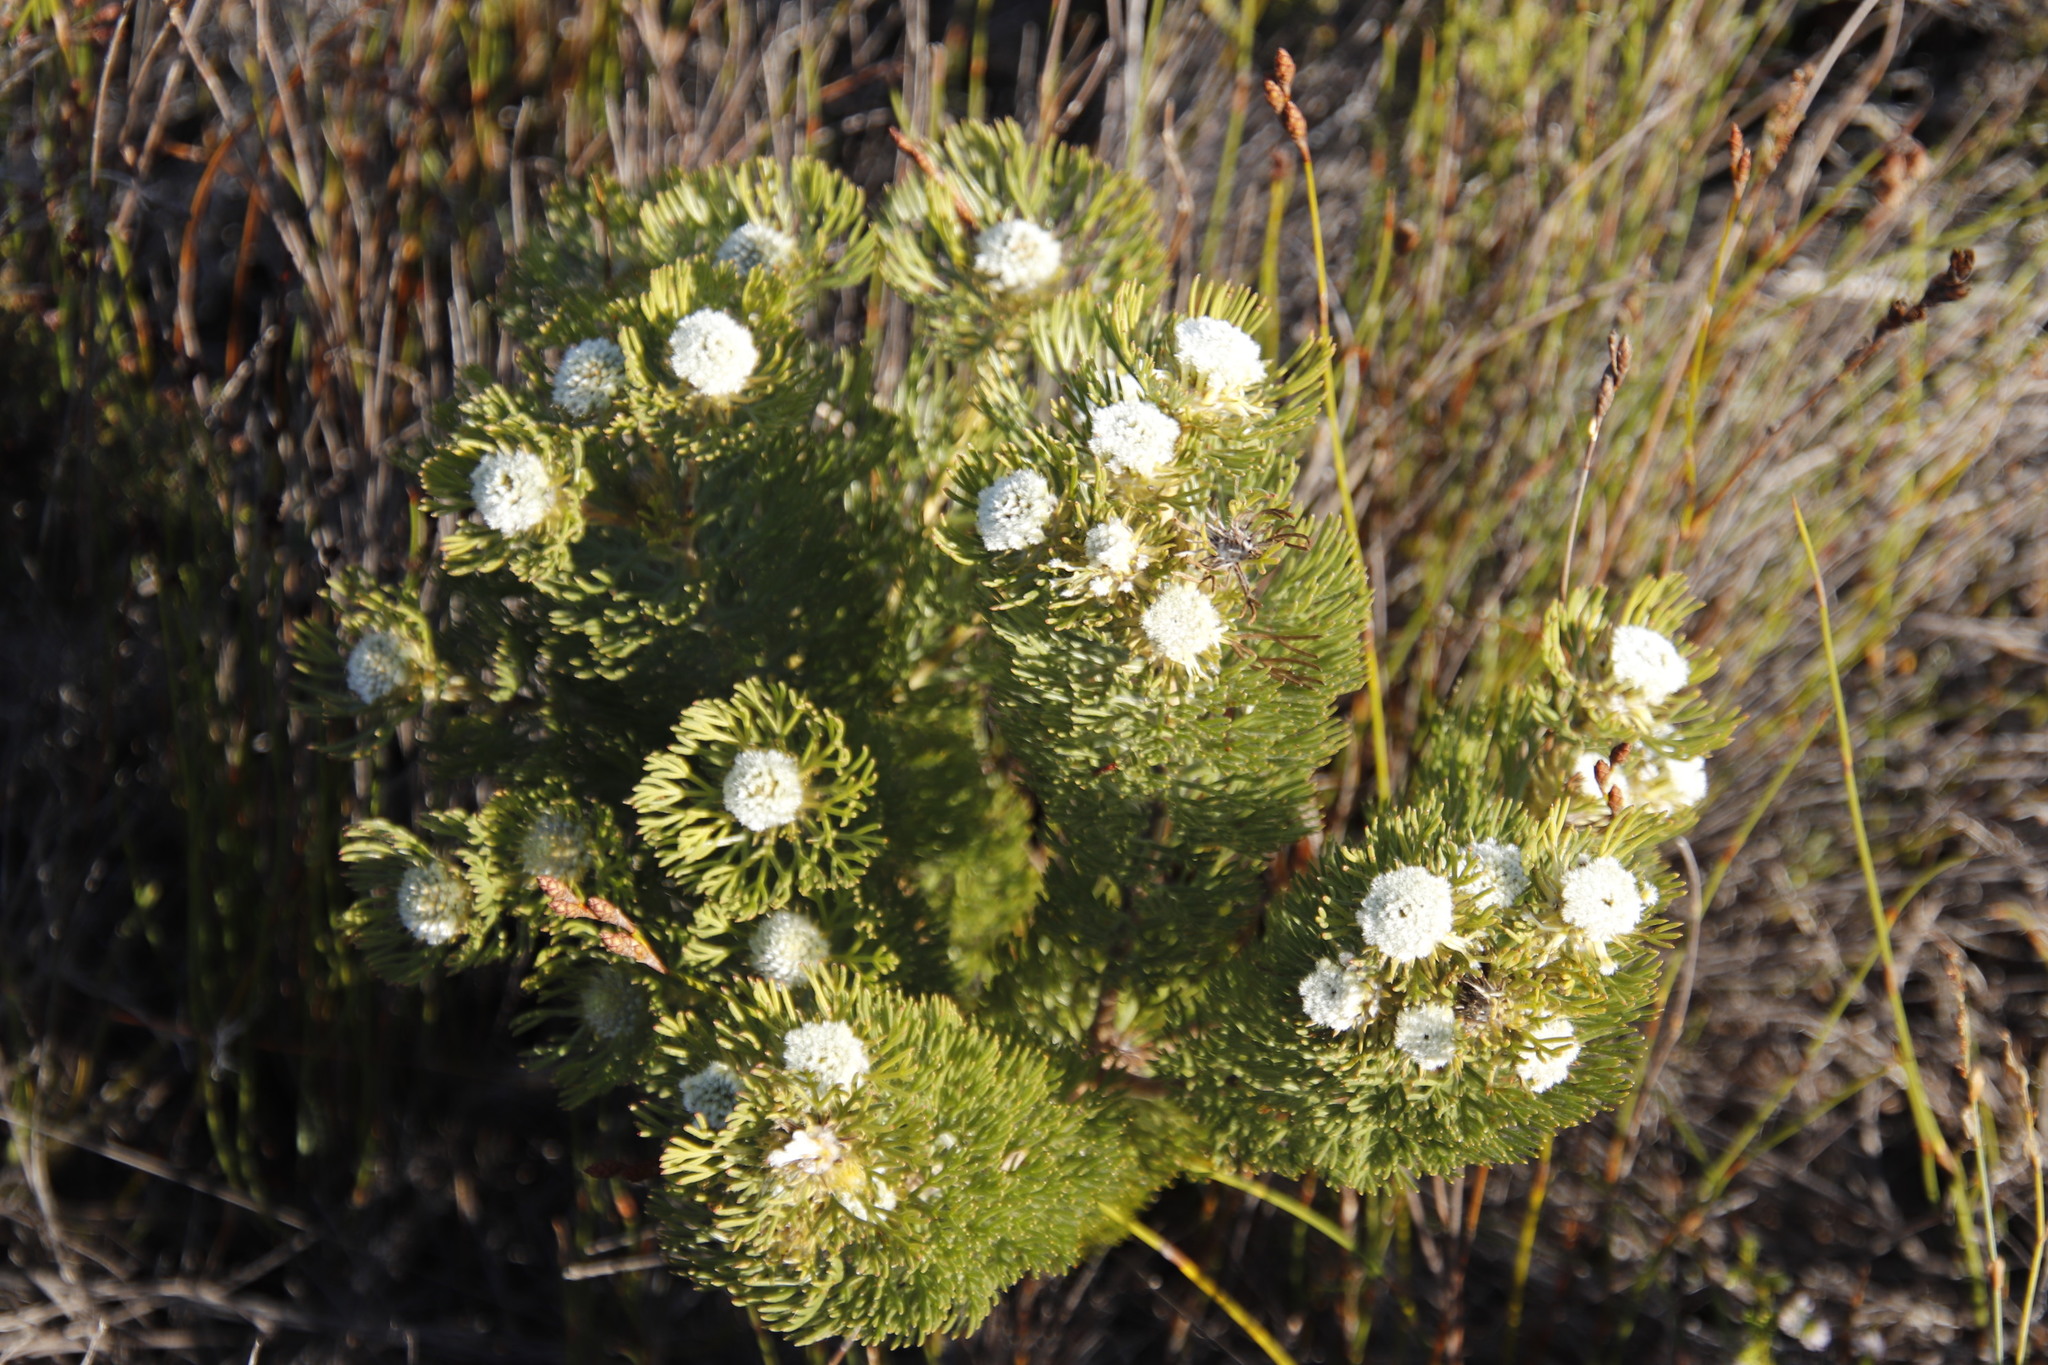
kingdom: Plantae
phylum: Tracheophyta
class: Magnoliopsida
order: Proteales
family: Proteaceae
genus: Serruria
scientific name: Serruria glomerata
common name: Cluster spiderhead
